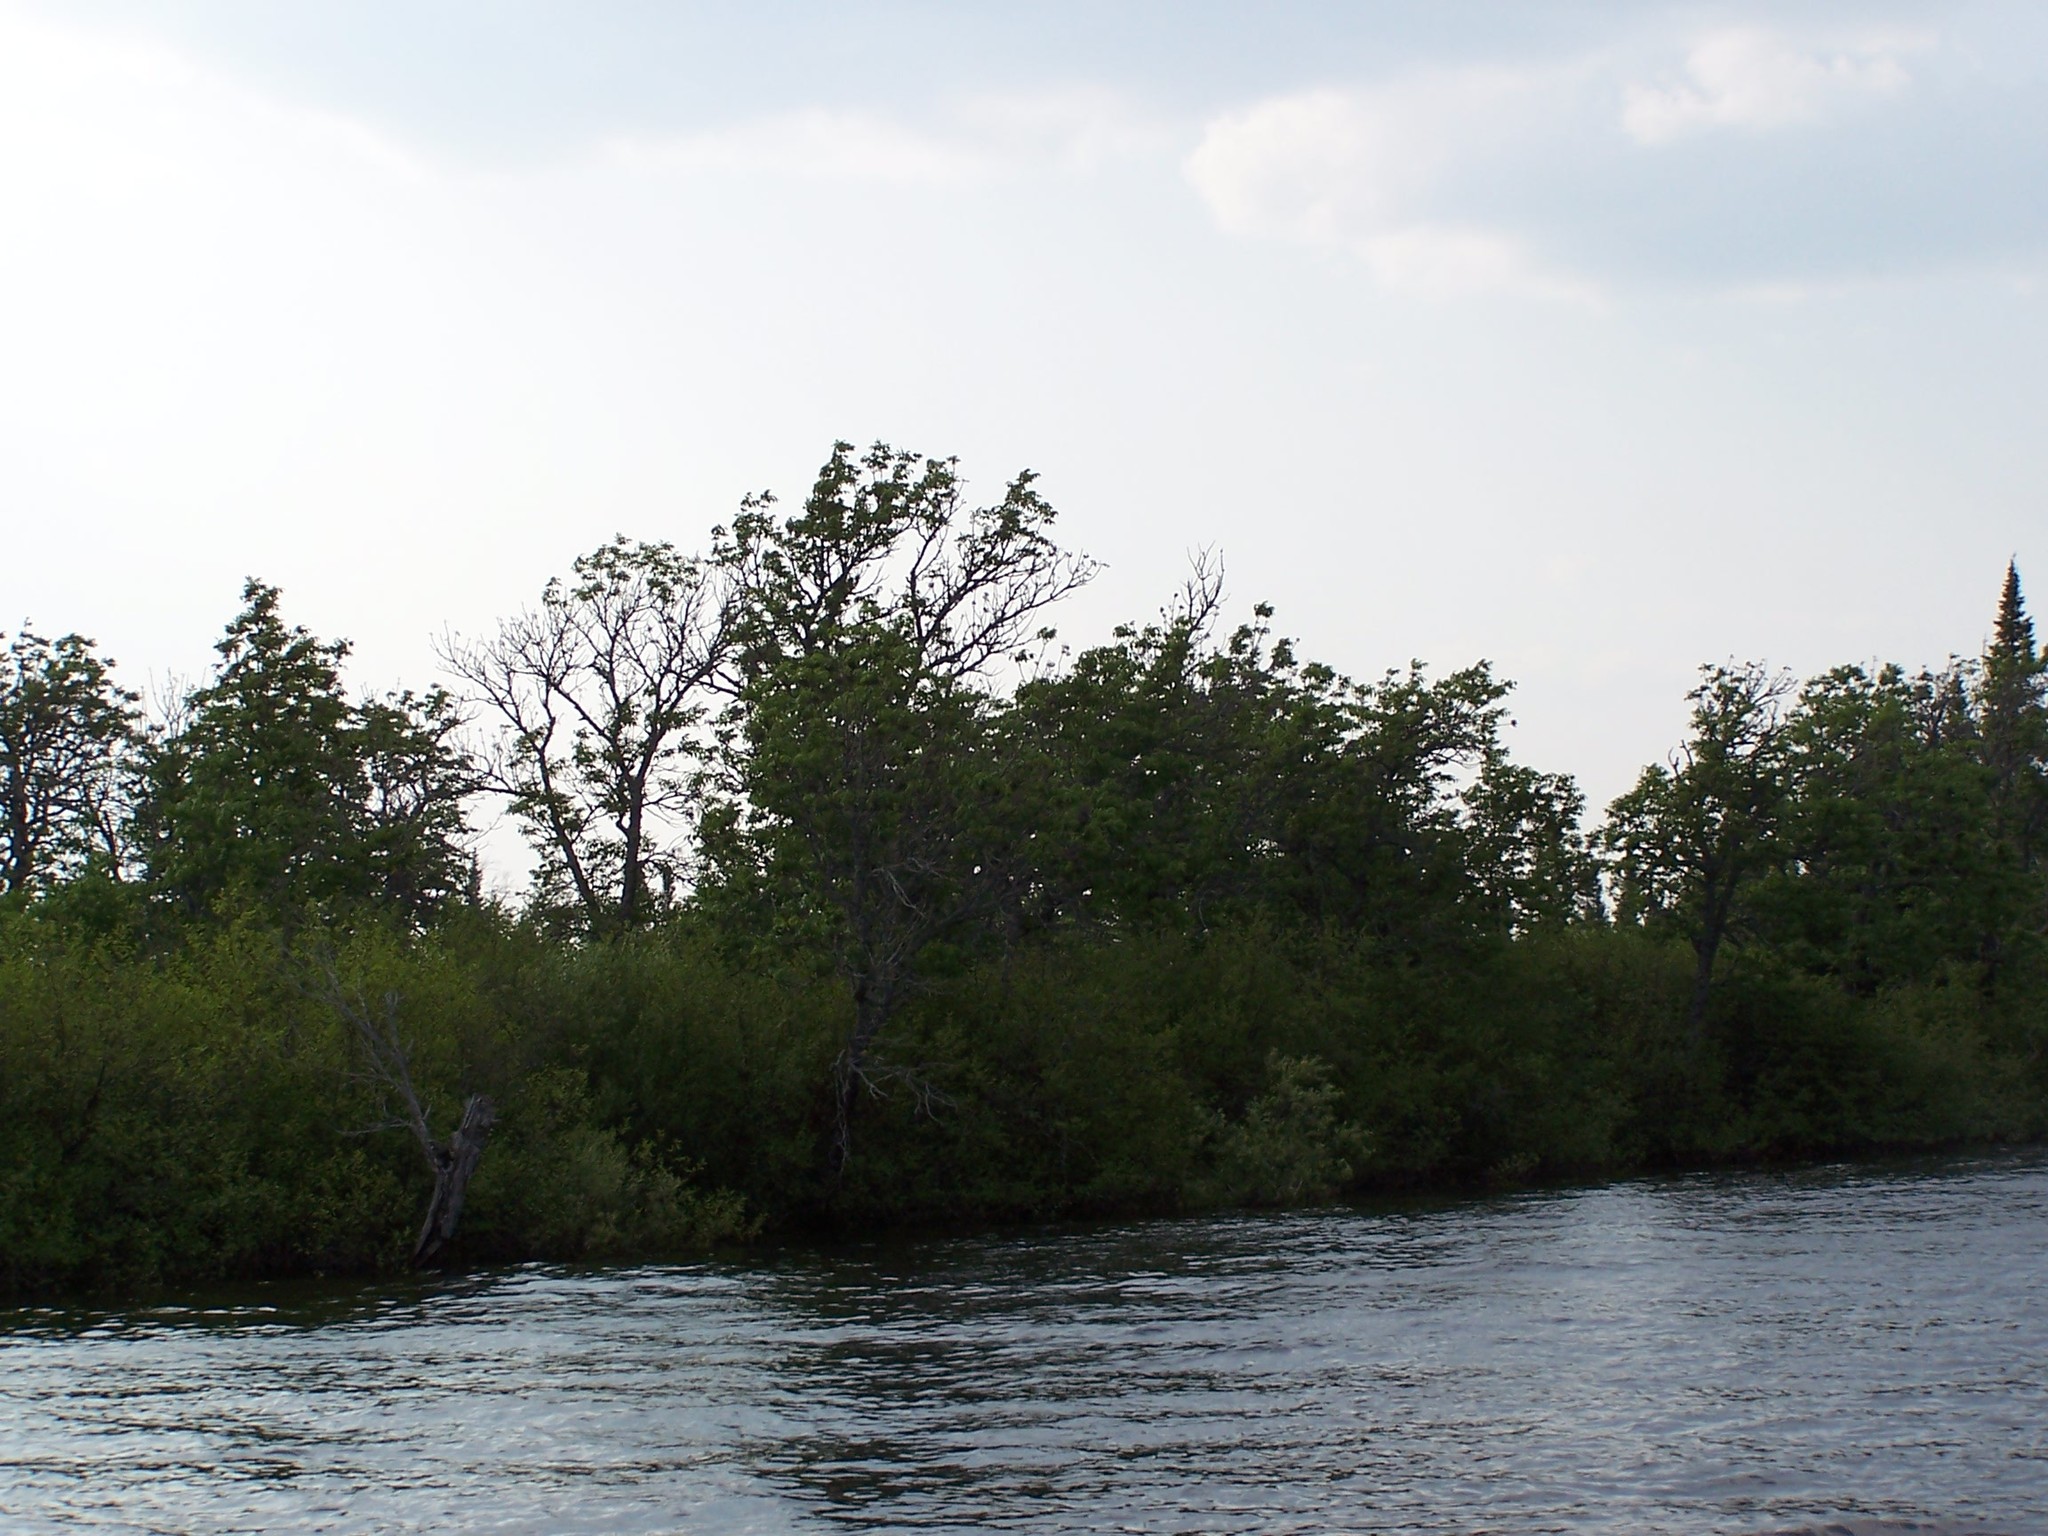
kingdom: Plantae
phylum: Tracheophyta
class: Magnoliopsida
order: Lamiales
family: Oleaceae
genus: Fraxinus
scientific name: Fraxinus nigra
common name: Black ash
